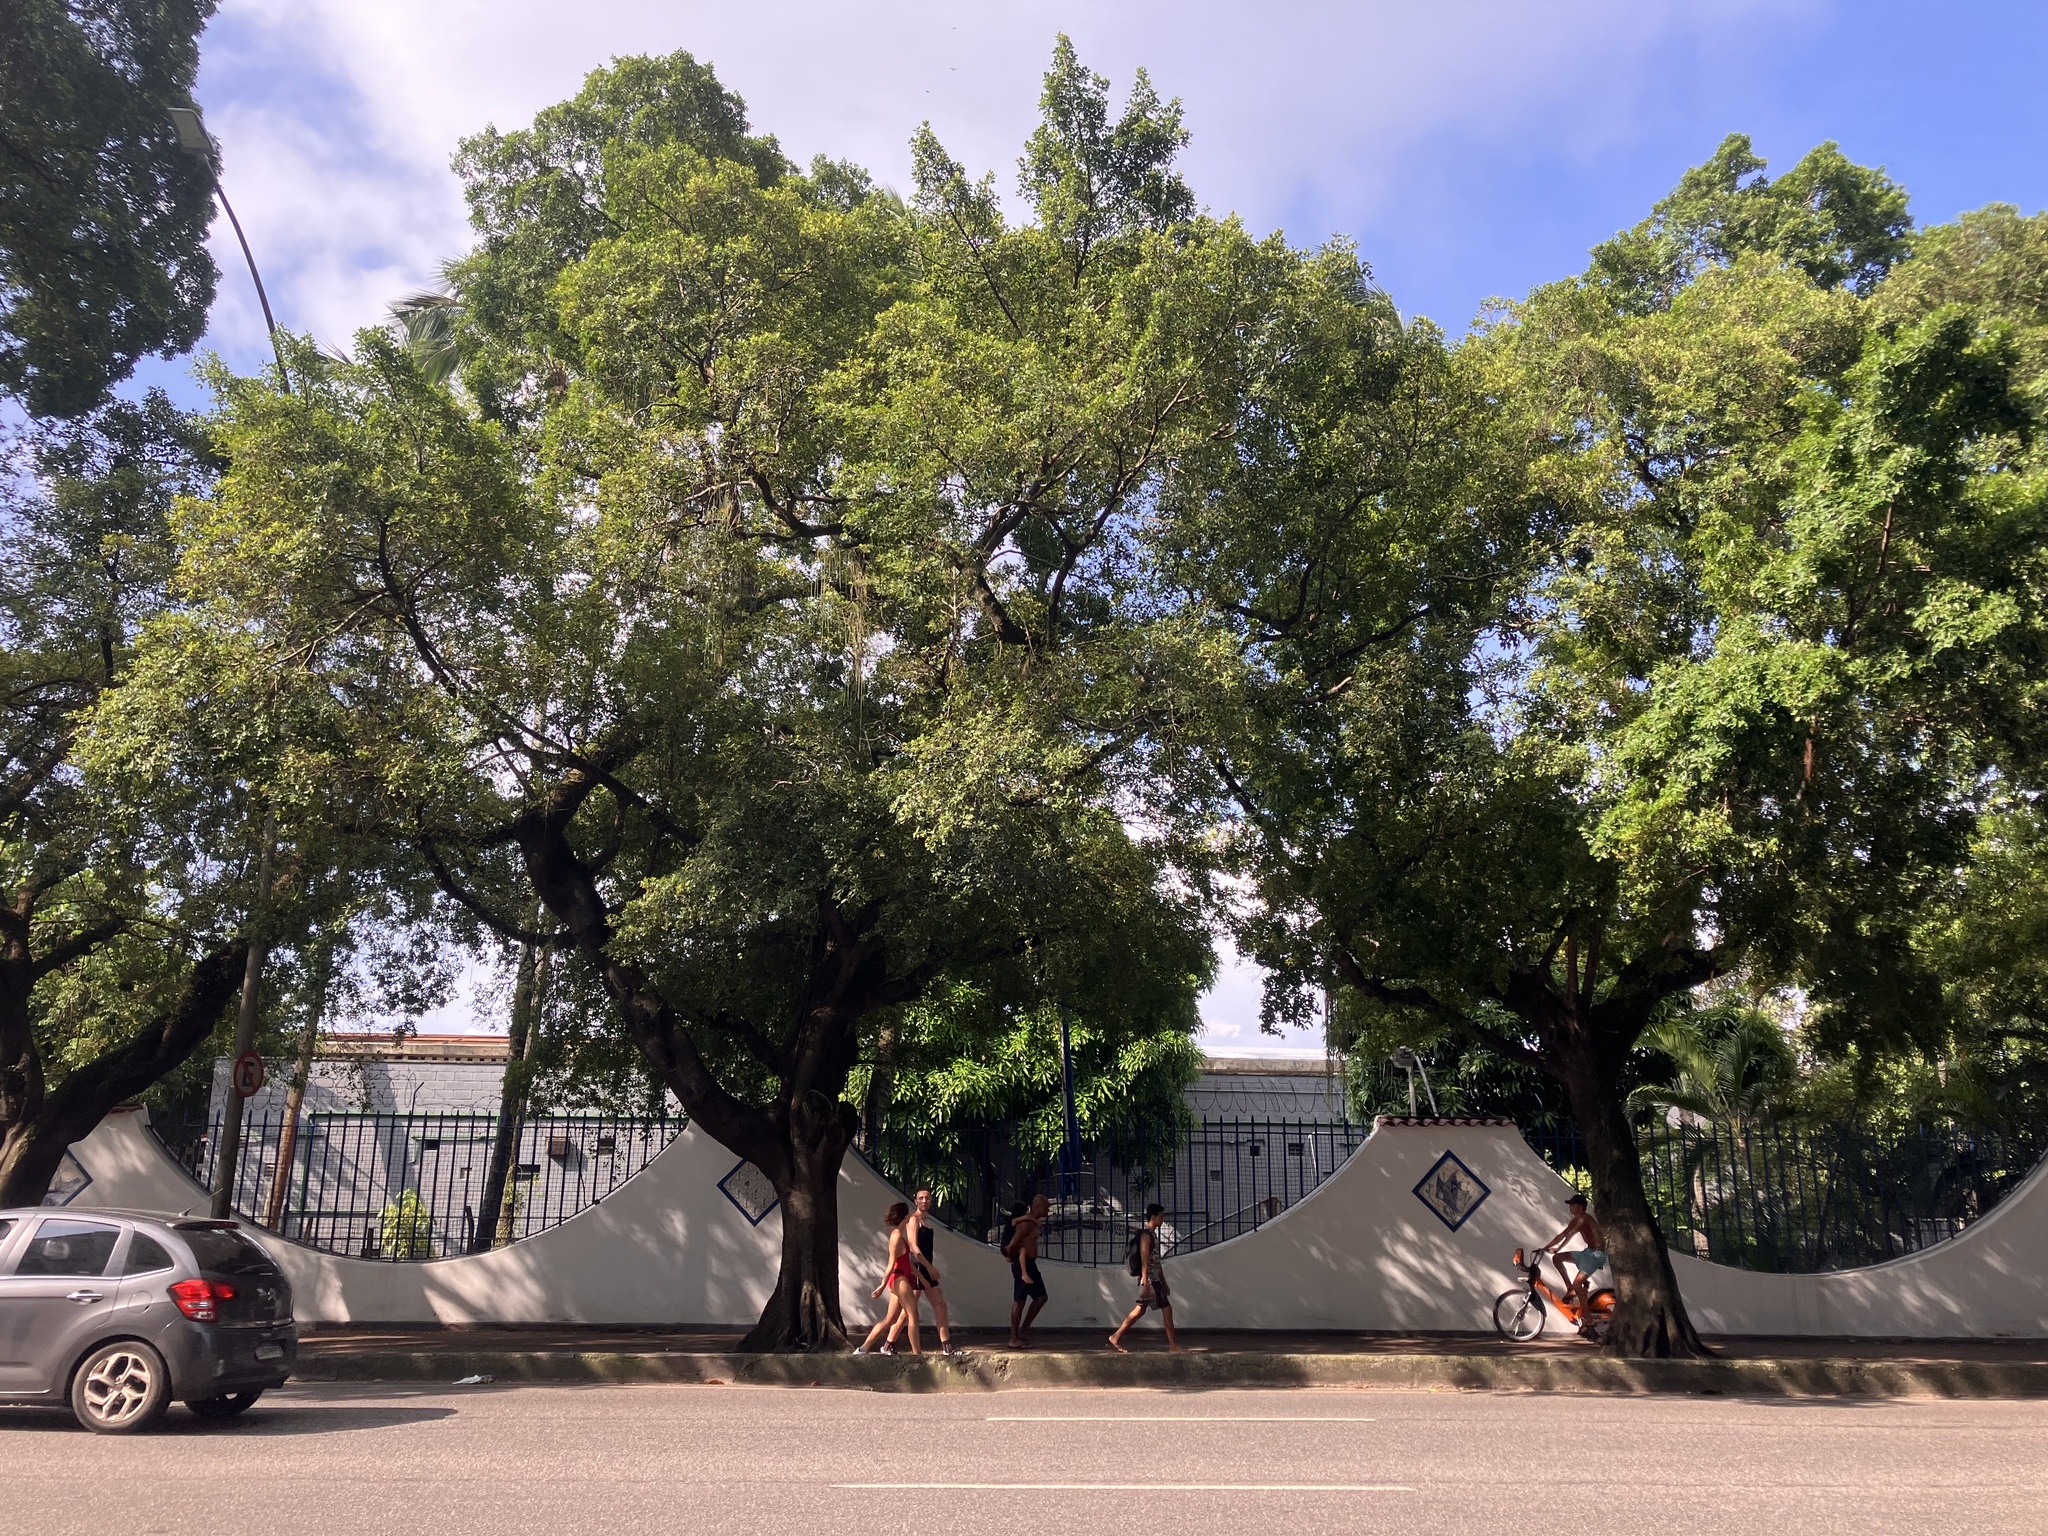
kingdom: Plantae
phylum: Tracheophyta
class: Magnoliopsida
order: Rosales
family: Moraceae
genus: Ficus
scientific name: Ficus microcarpa
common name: Chinese banyan
